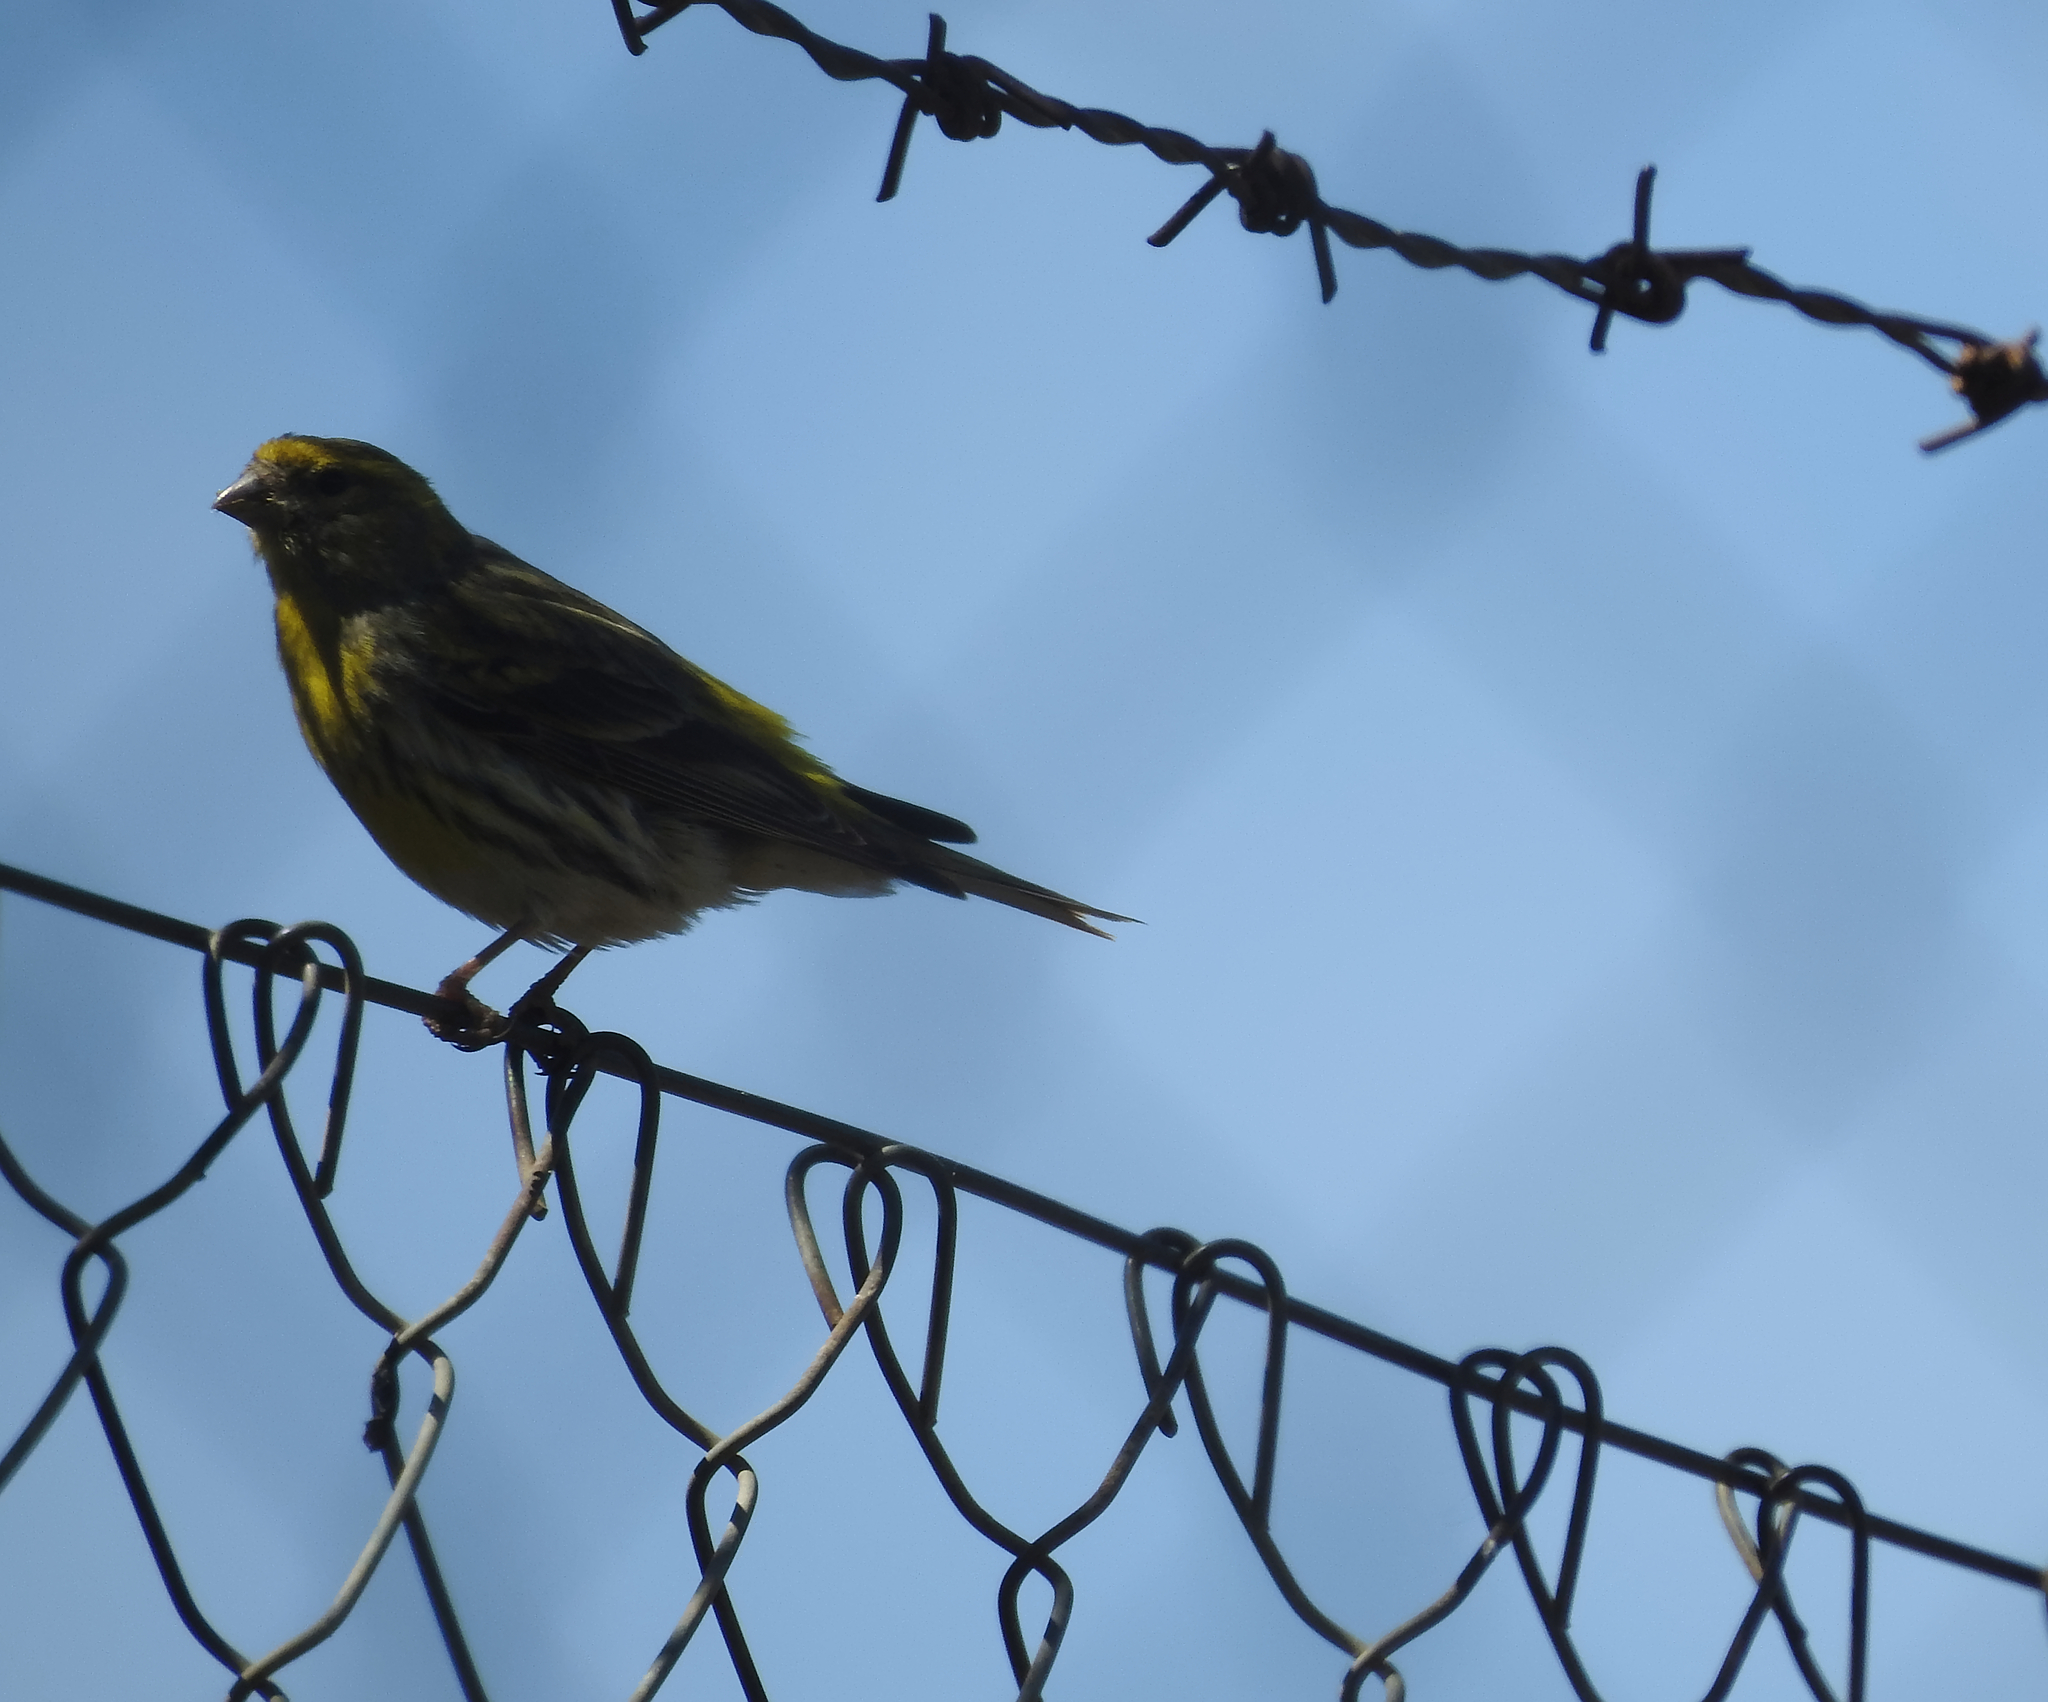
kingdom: Animalia
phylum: Chordata
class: Aves
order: Passeriformes
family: Fringillidae
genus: Serinus
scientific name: Serinus serinus
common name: European serin
